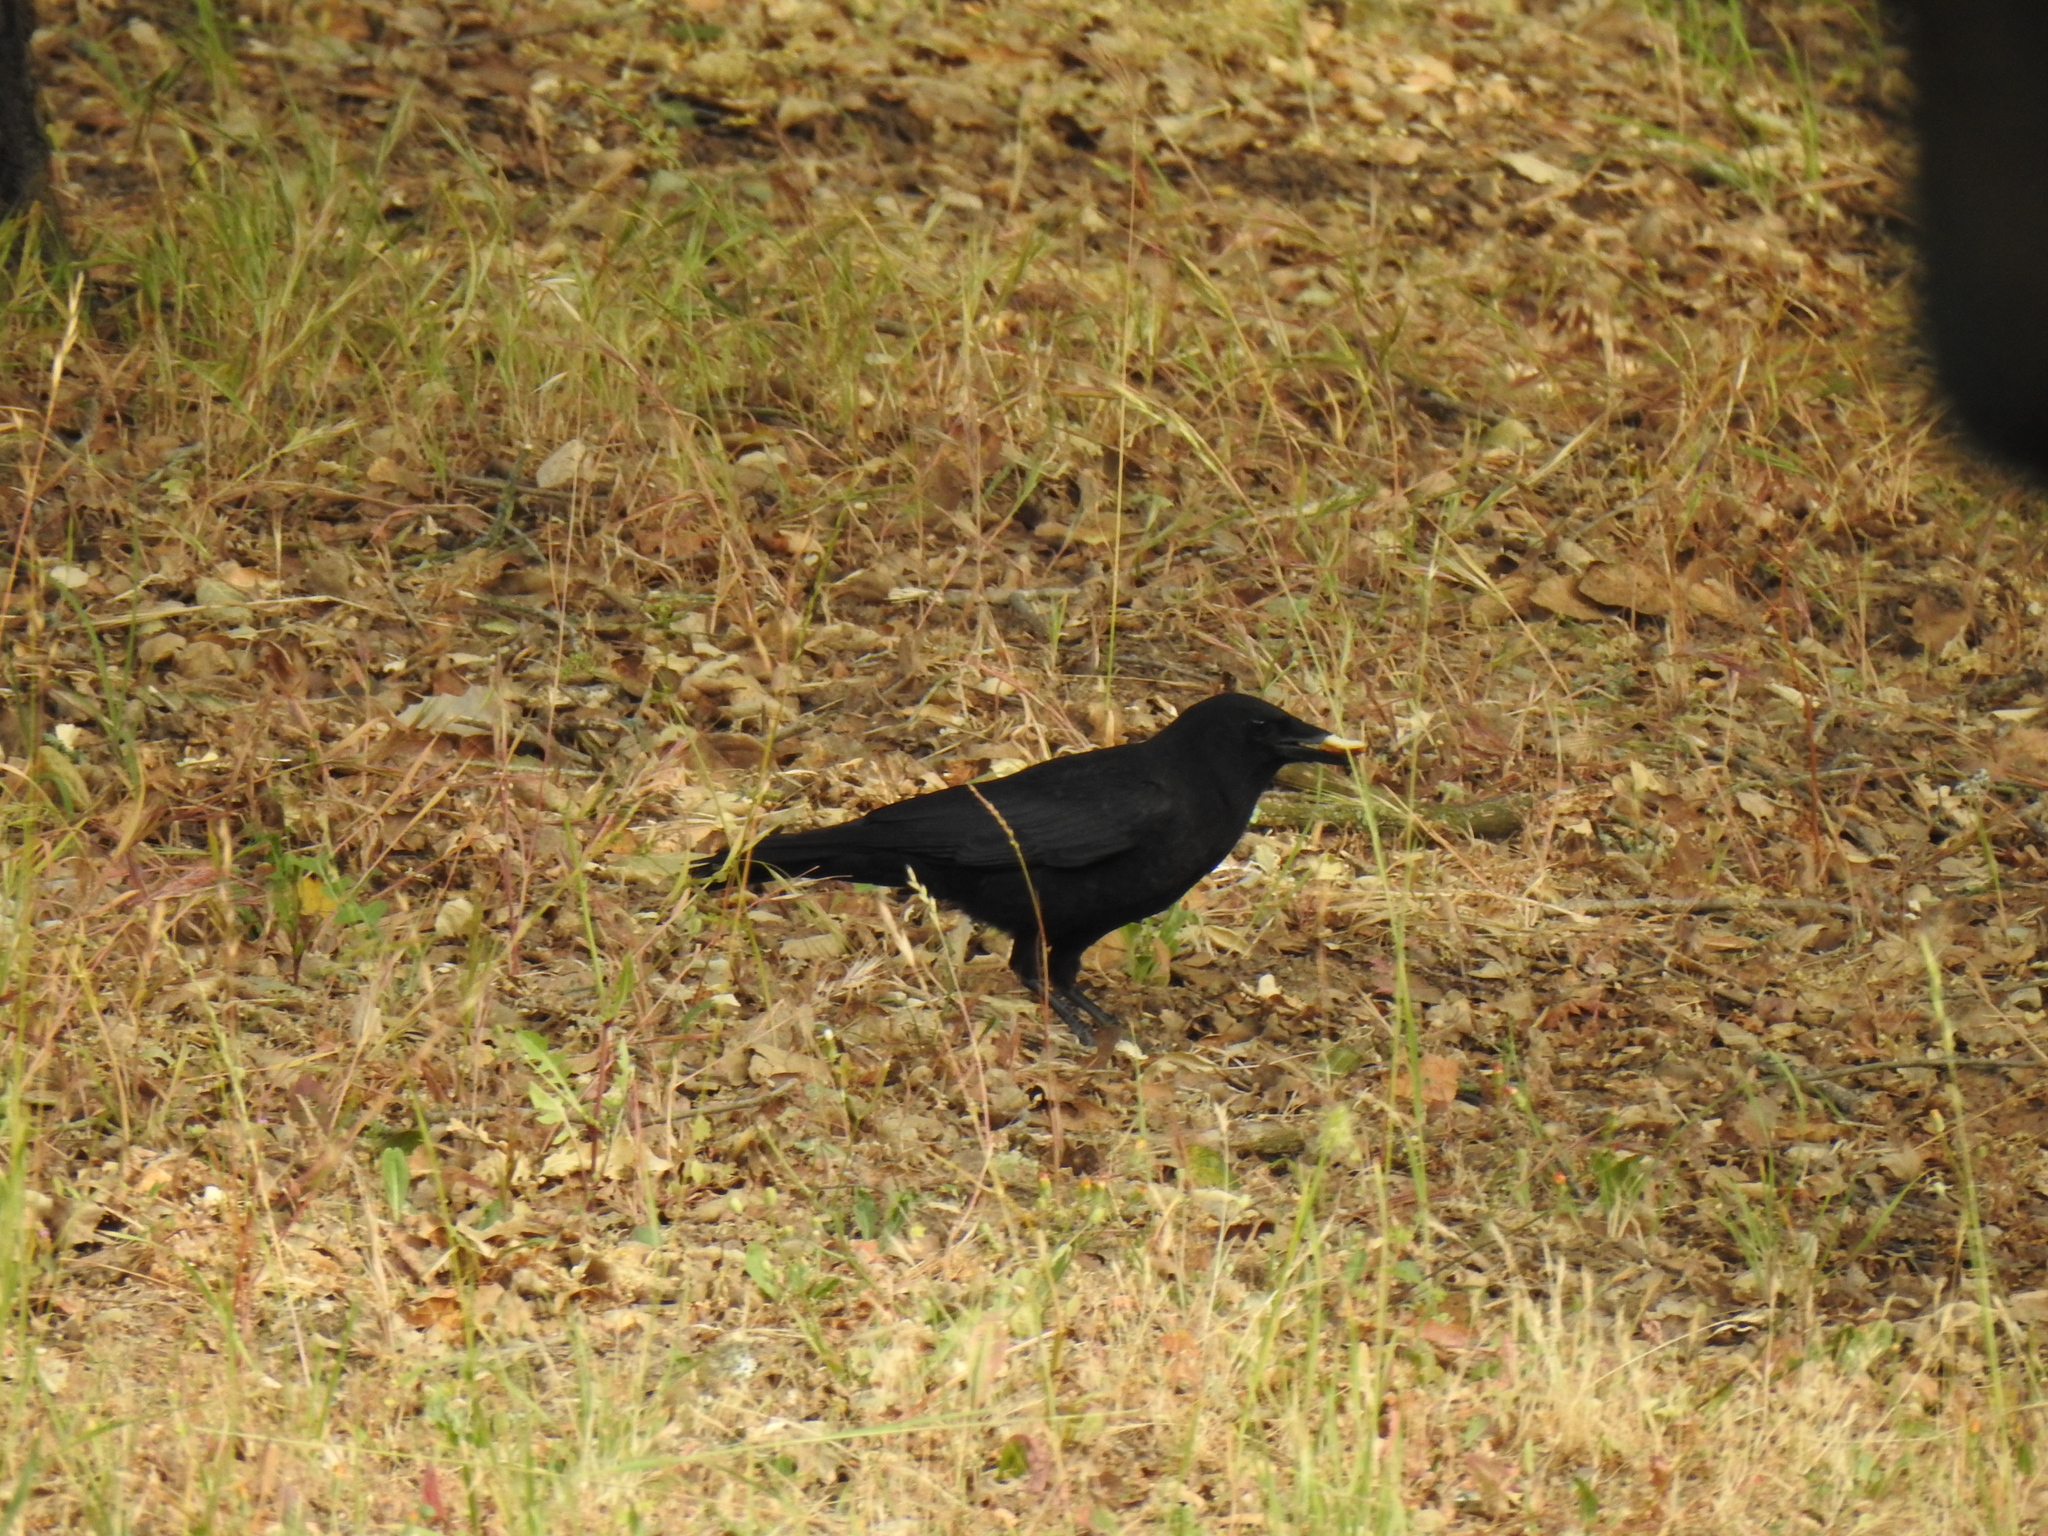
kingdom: Animalia
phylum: Chordata
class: Aves
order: Passeriformes
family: Corvidae
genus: Corvus
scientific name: Corvus brachyrhynchos
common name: American crow
